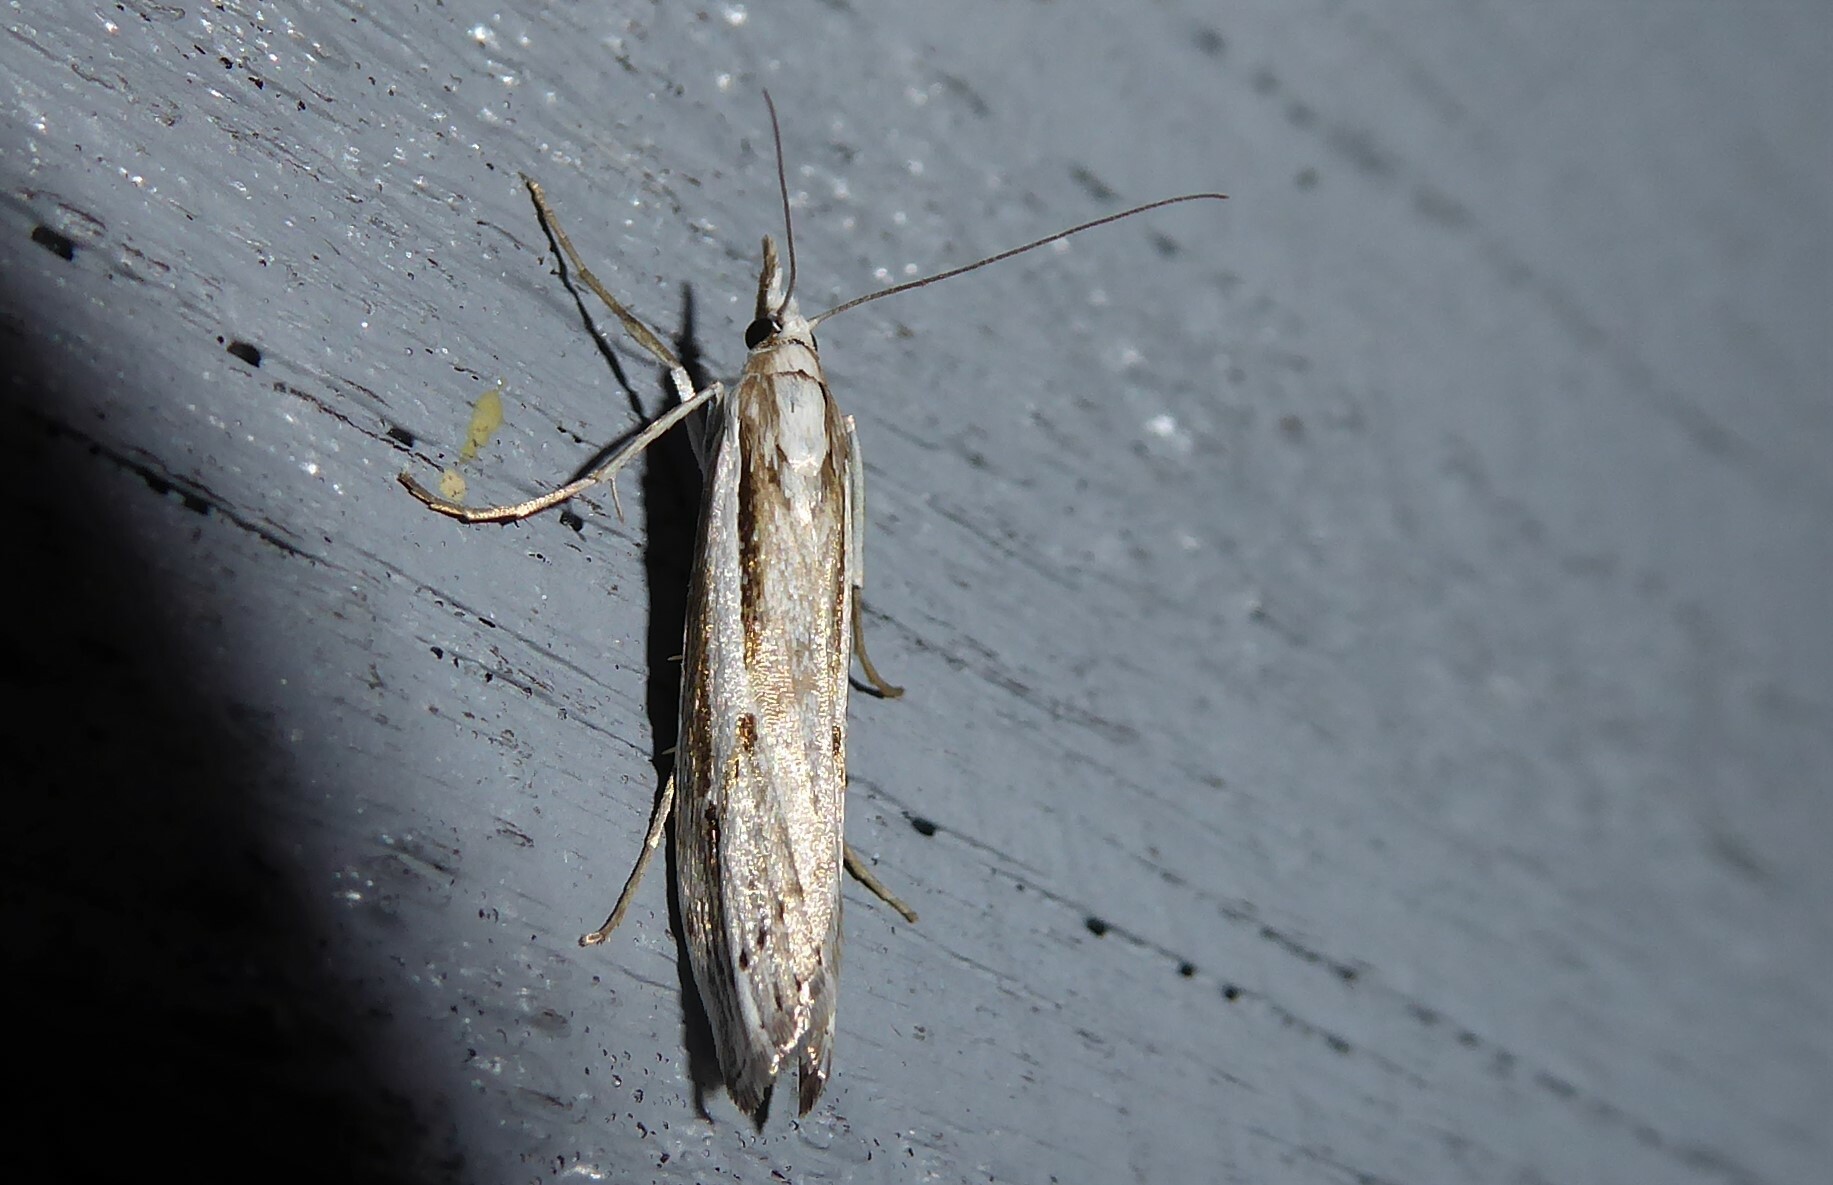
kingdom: Animalia
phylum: Arthropoda
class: Insecta
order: Lepidoptera
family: Crambidae
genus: Orocrambus
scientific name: Orocrambus vittellus
